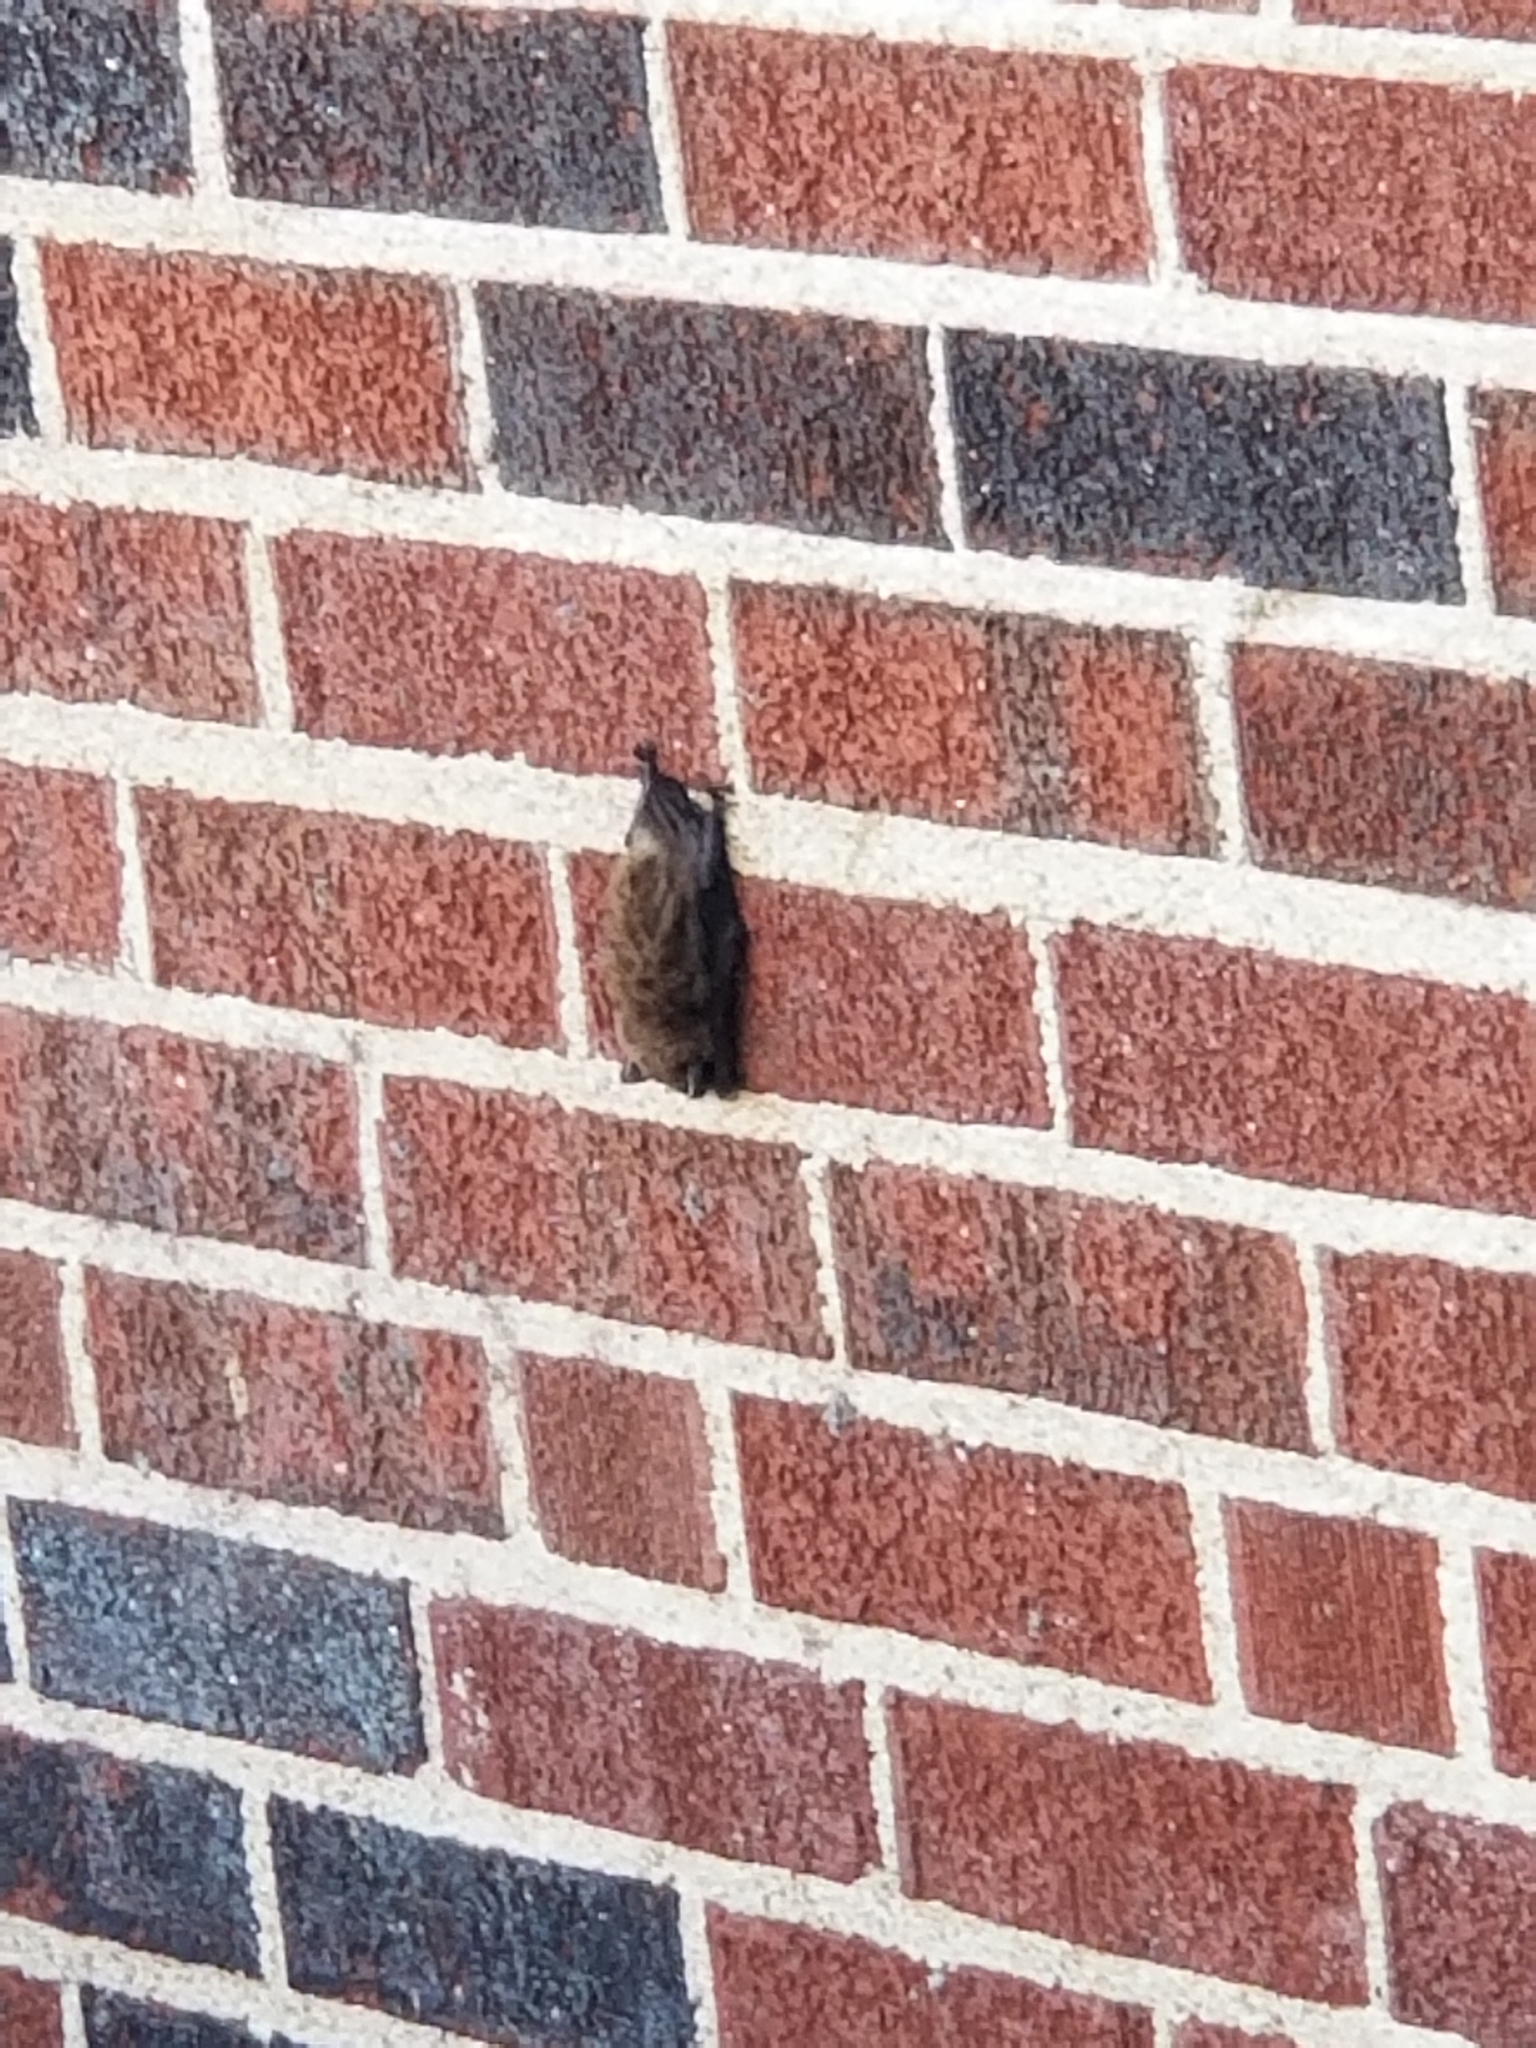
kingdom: Animalia
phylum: Chordata
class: Mammalia
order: Chiroptera
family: Vespertilionidae
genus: Eptesicus
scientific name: Eptesicus fuscus
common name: Big brown bat
